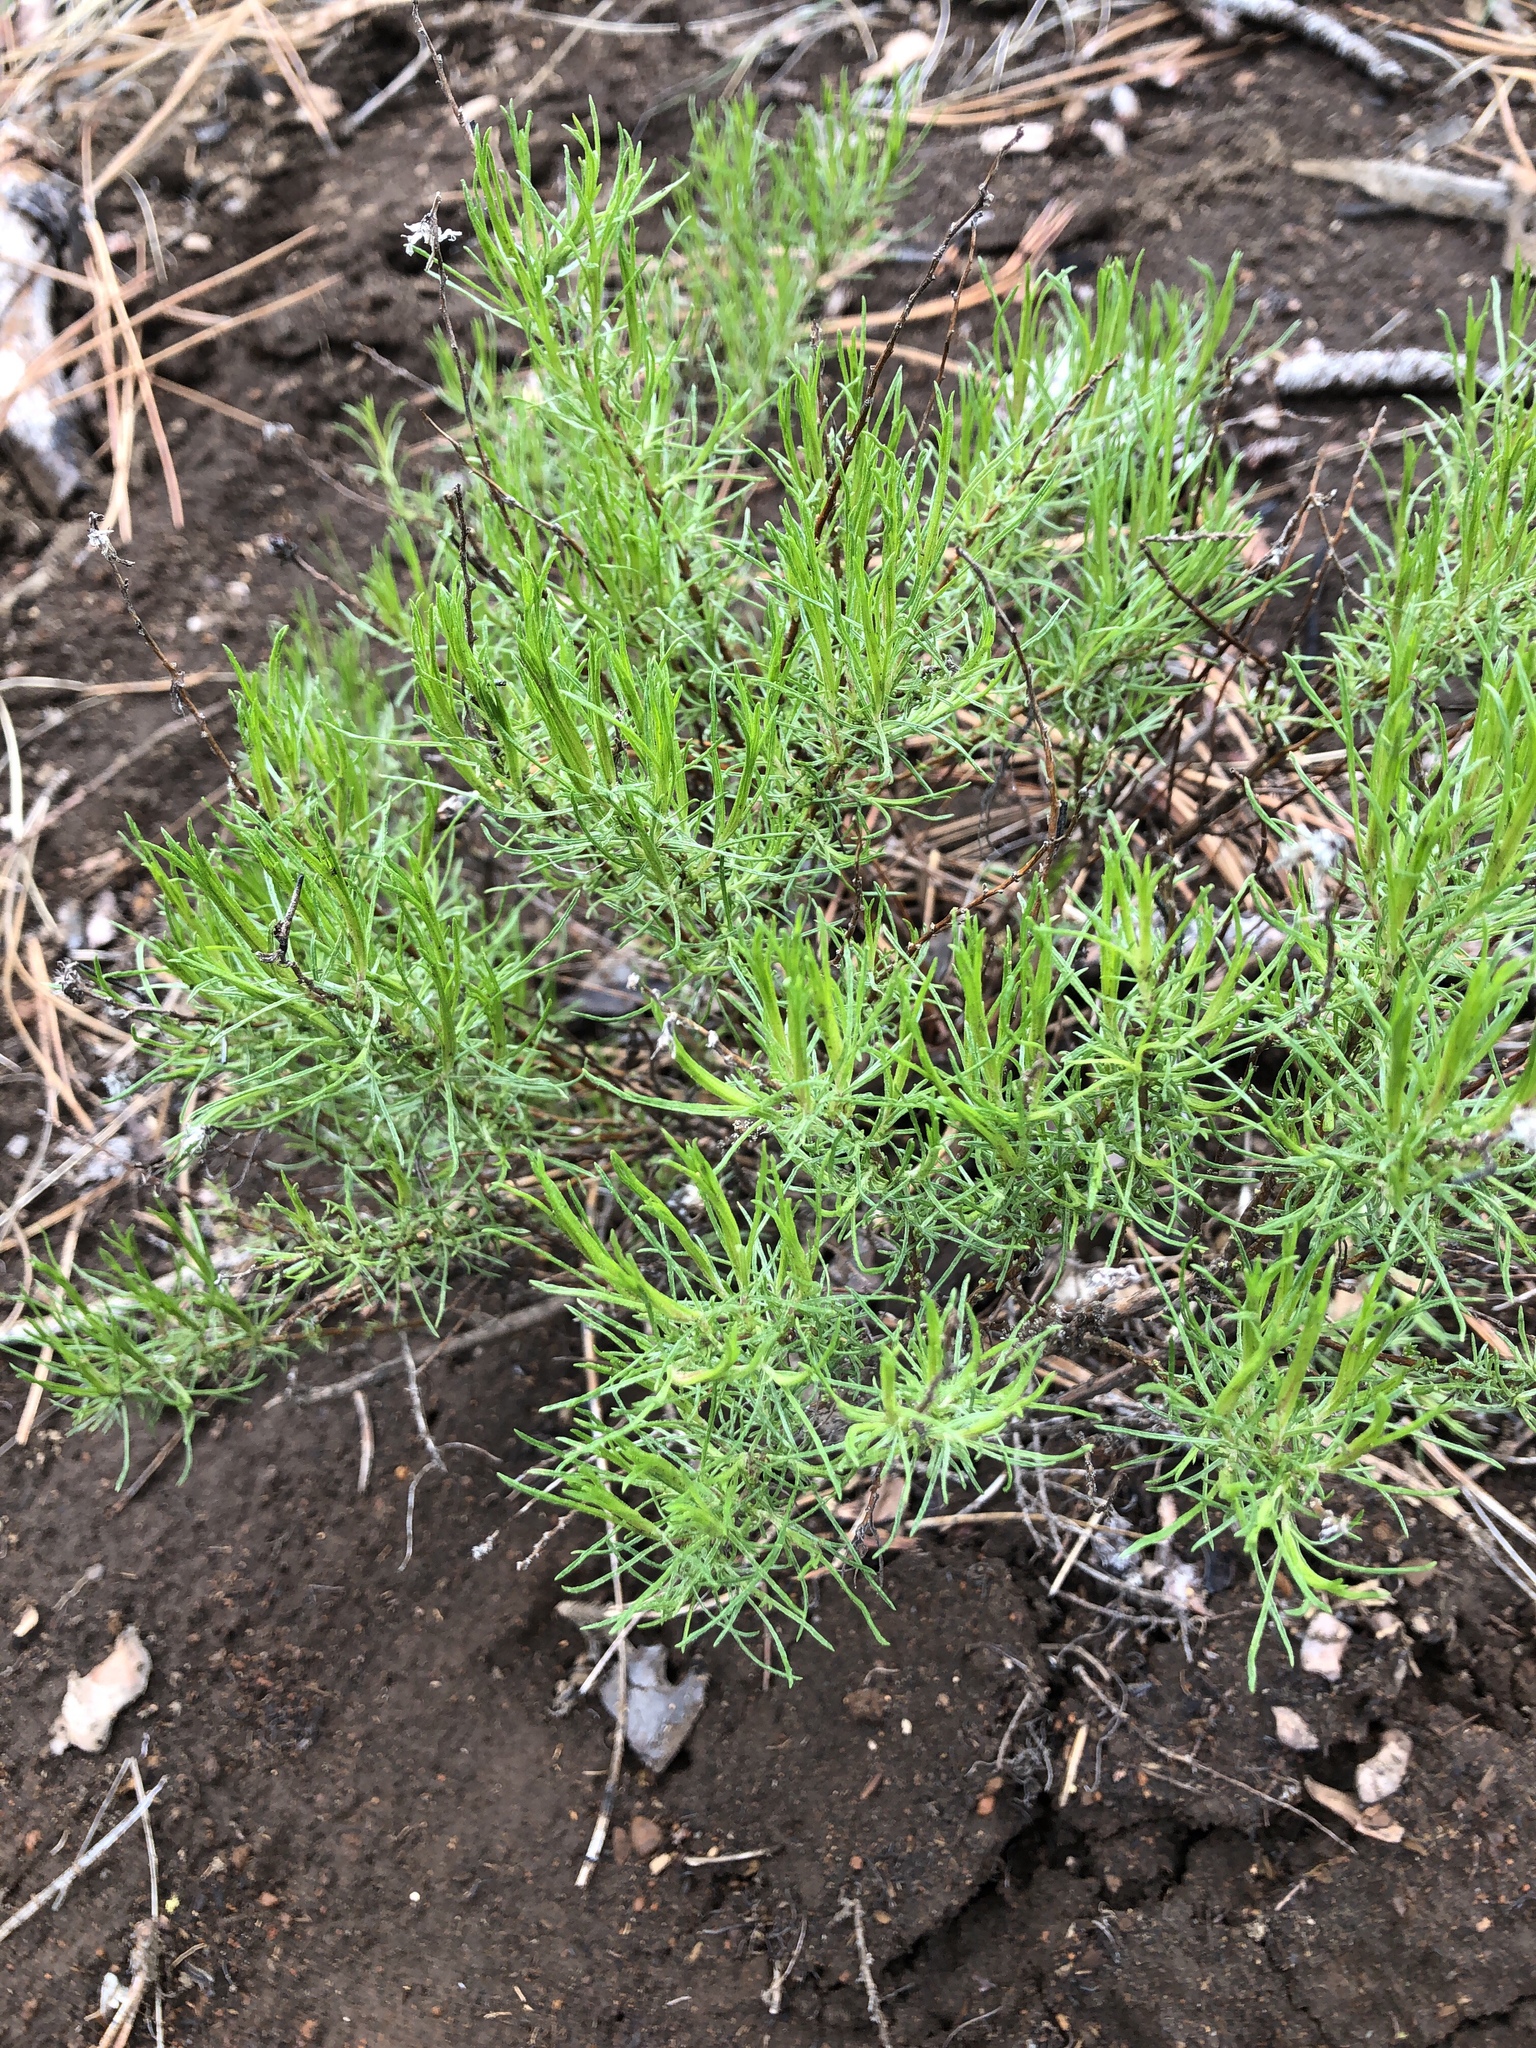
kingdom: Plantae
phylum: Tracheophyta
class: Magnoliopsida
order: Asterales
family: Asteraceae
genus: Chrysothamnus
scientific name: Chrysothamnus viscidiflorus
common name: Yellow rabbitbrush
